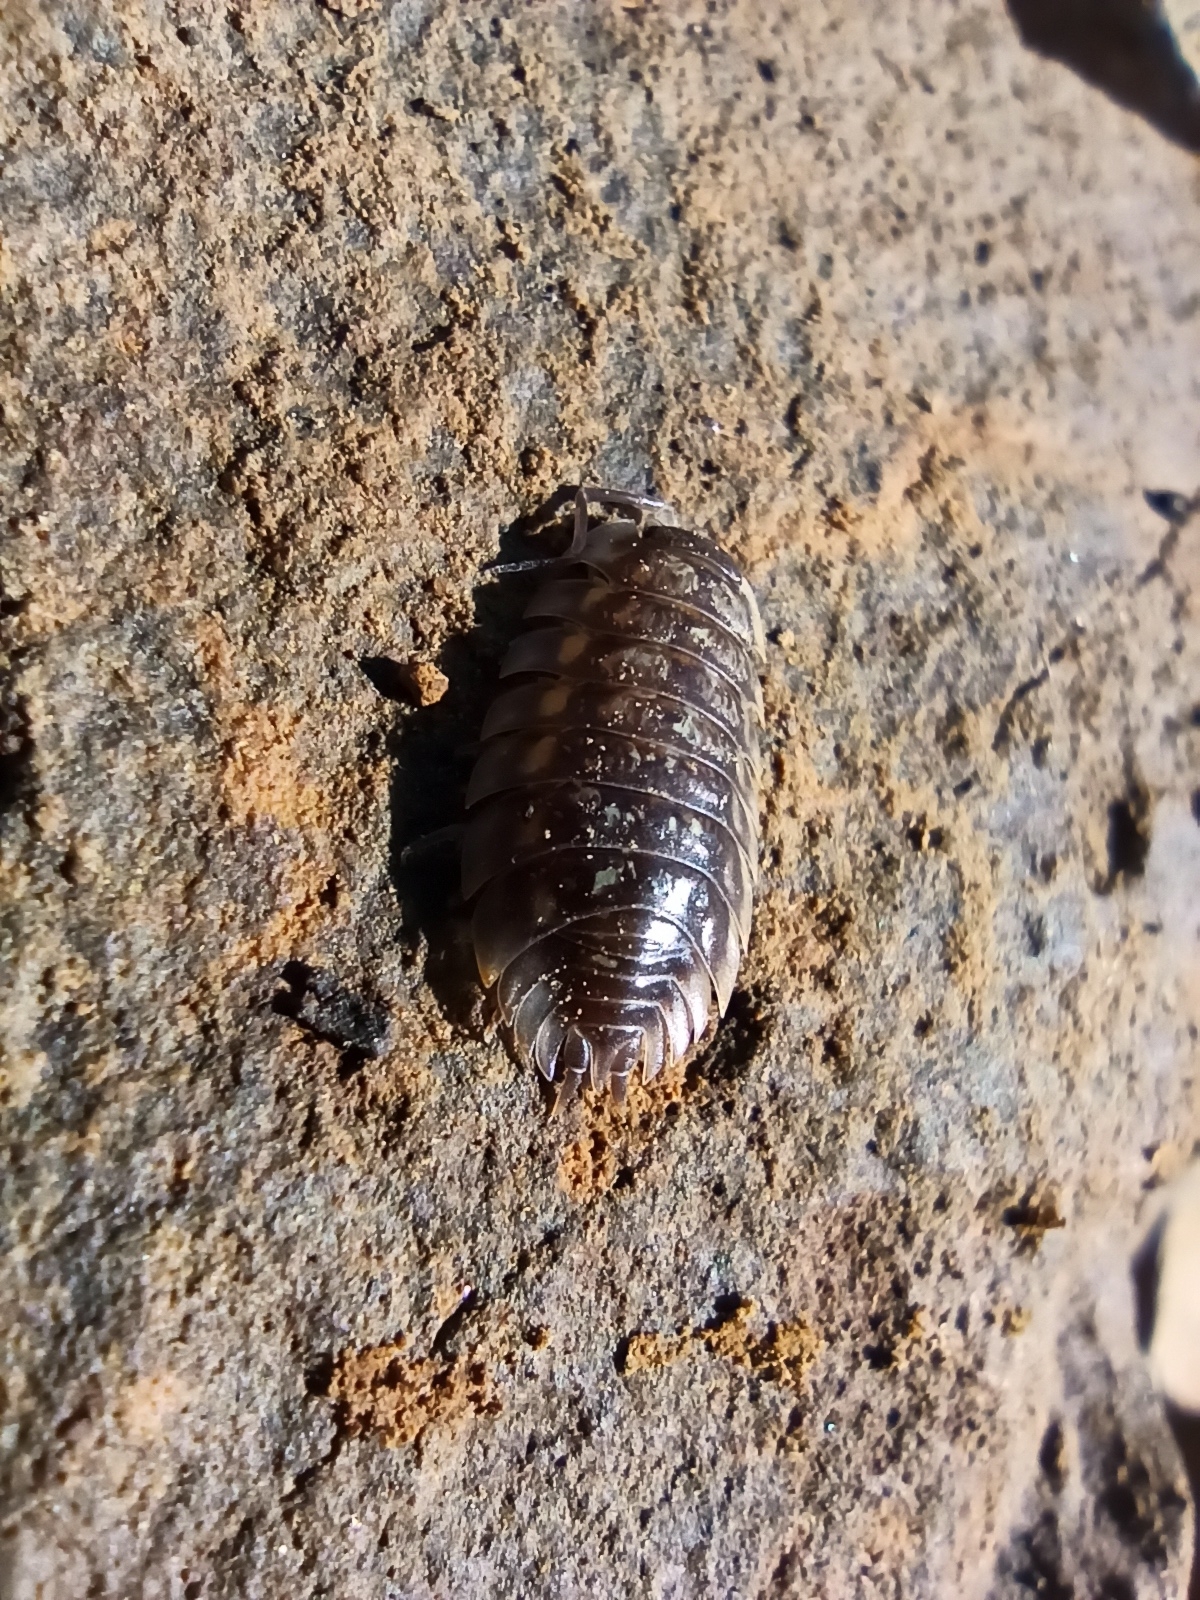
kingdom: Animalia
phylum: Arthropoda
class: Malacostraca
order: Isopoda
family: Oniscidae
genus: Oniscus
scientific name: Oniscus asellus
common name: Common shiny woodlouse
